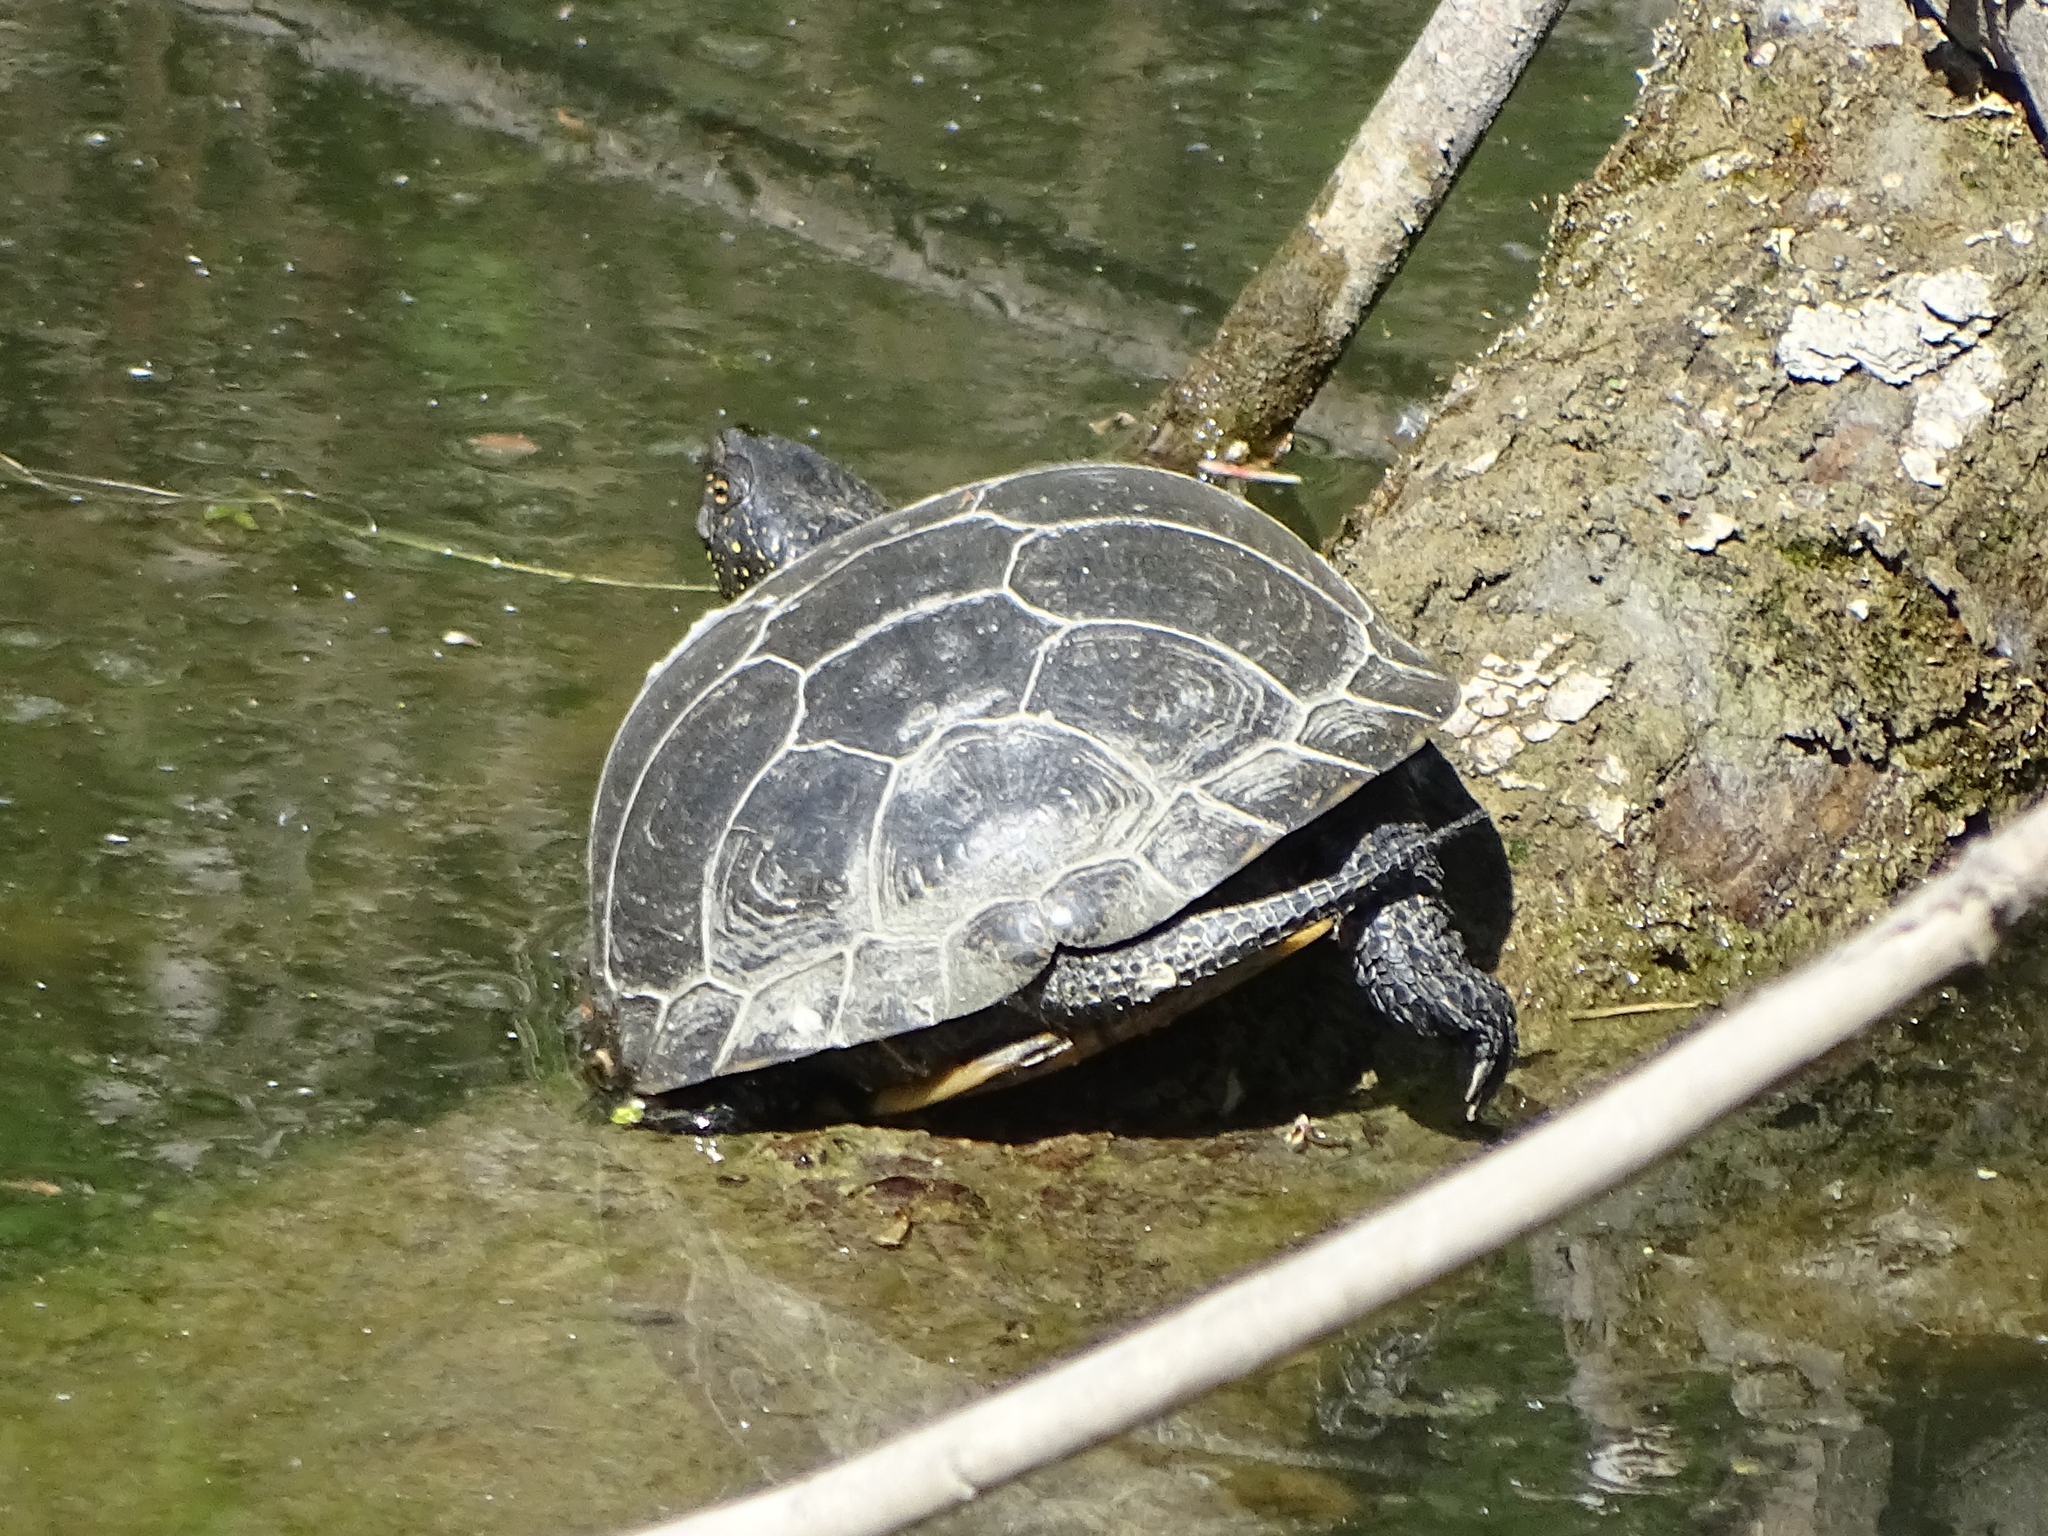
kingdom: Animalia
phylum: Chordata
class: Testudines
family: Emydidae
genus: Emys
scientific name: Emys orbicularis
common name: European pond turtle
